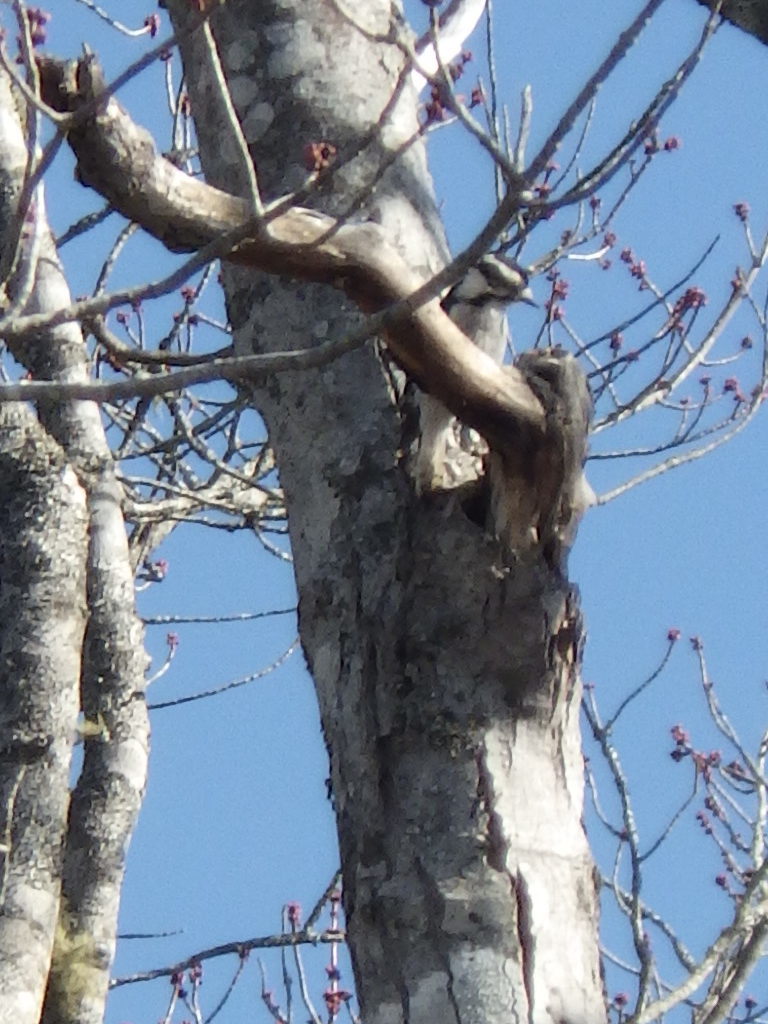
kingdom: Animalia
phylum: Chordata
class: Aves
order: Piciformes
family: Picidae
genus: Dryobates
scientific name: Dryobates pubescens
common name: Downy woodpecker
